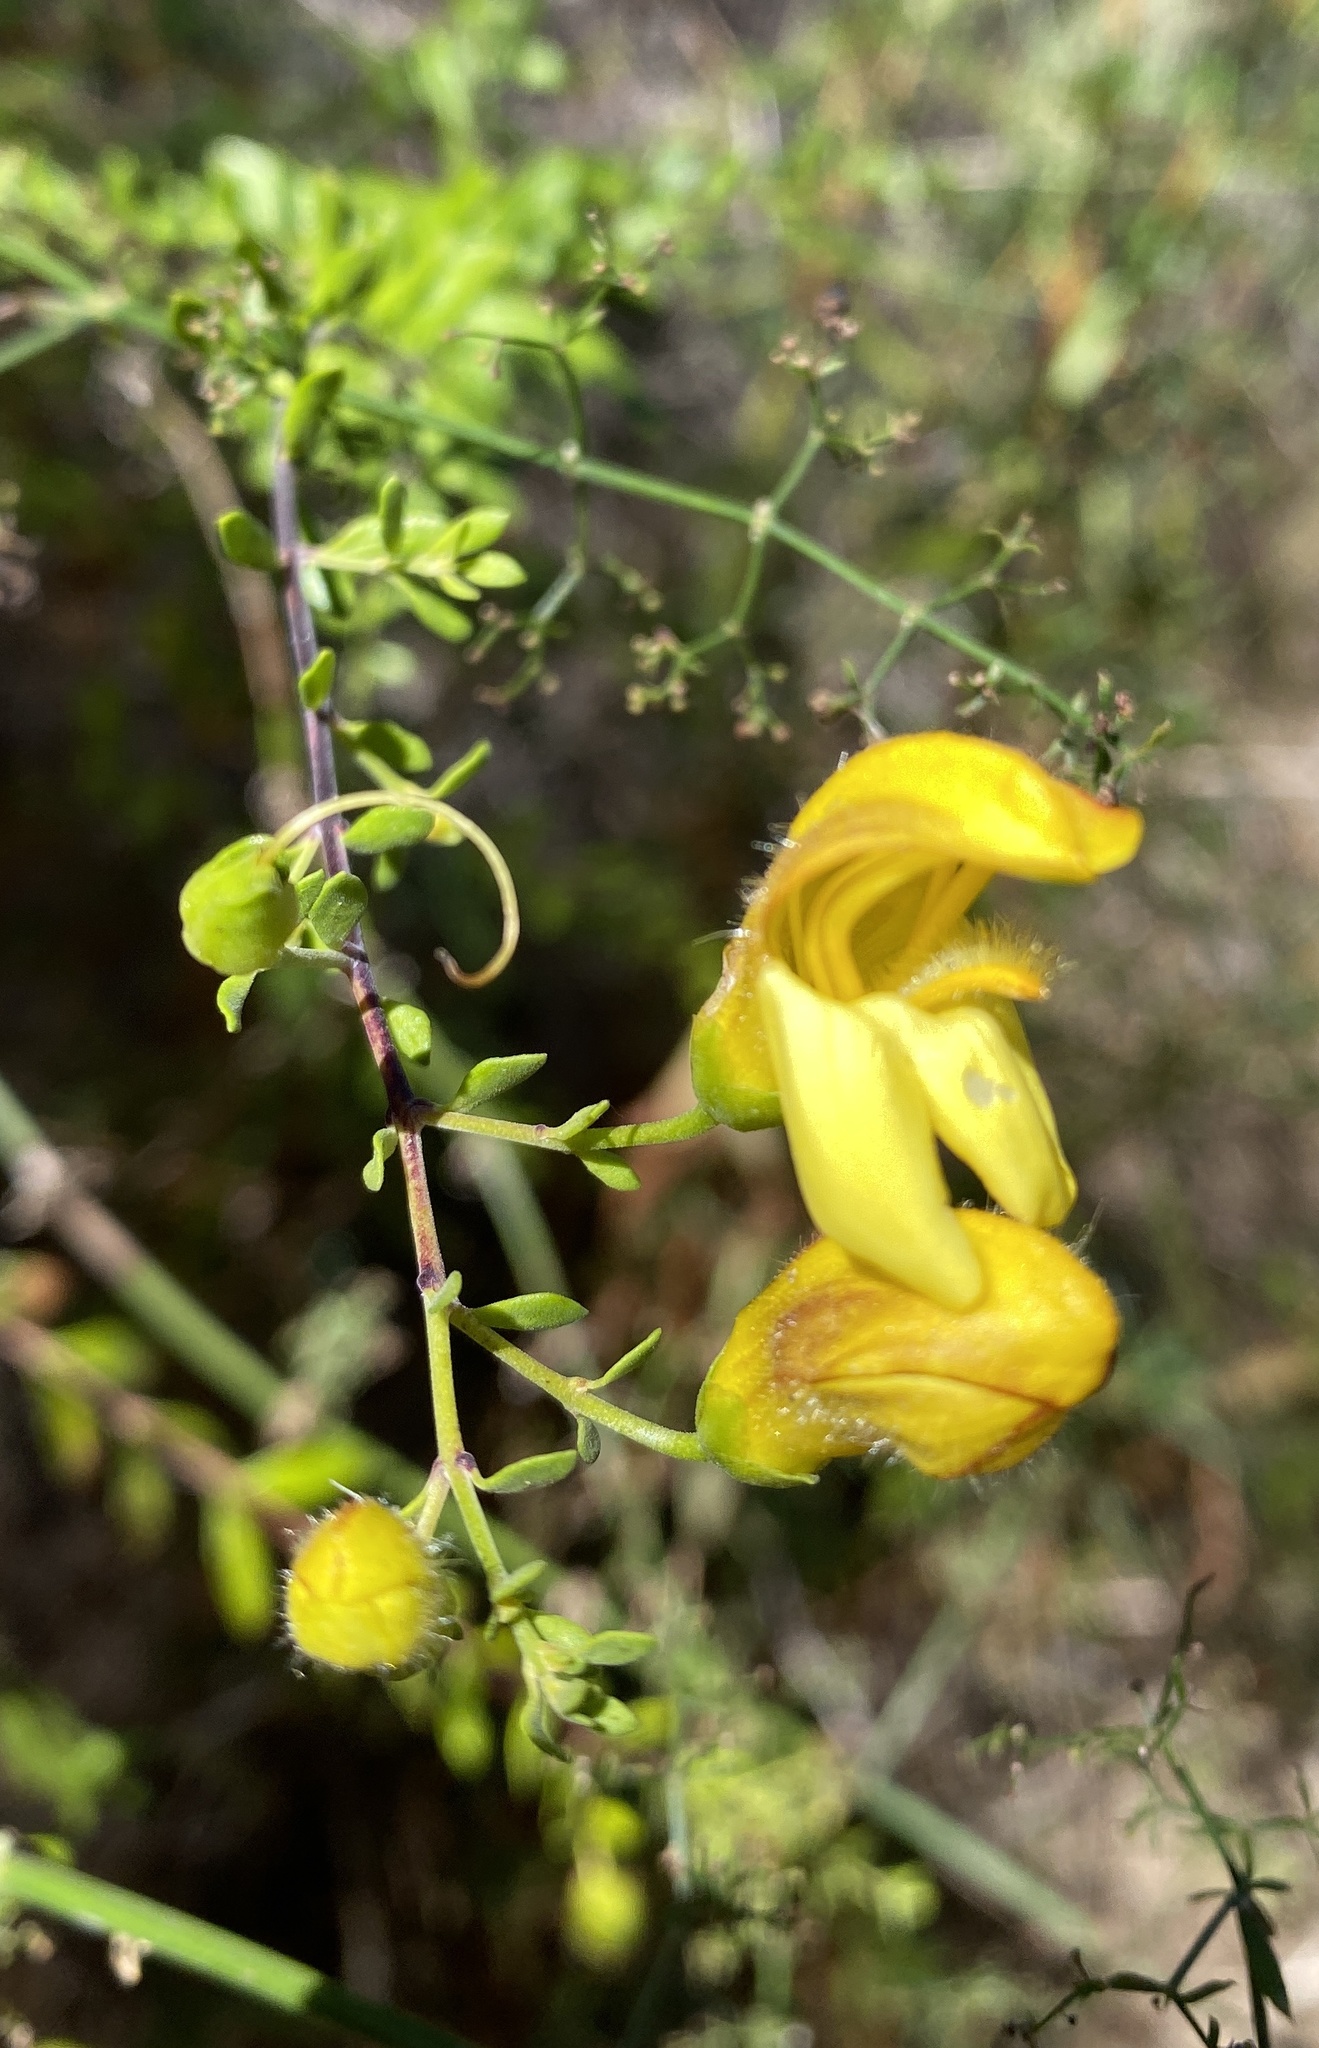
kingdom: Plantae
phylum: Tracheophyta
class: Magnoliopsida
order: Lamiales
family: Plantaginaceae
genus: Keckiella
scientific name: Keckiella antirrhinoides
